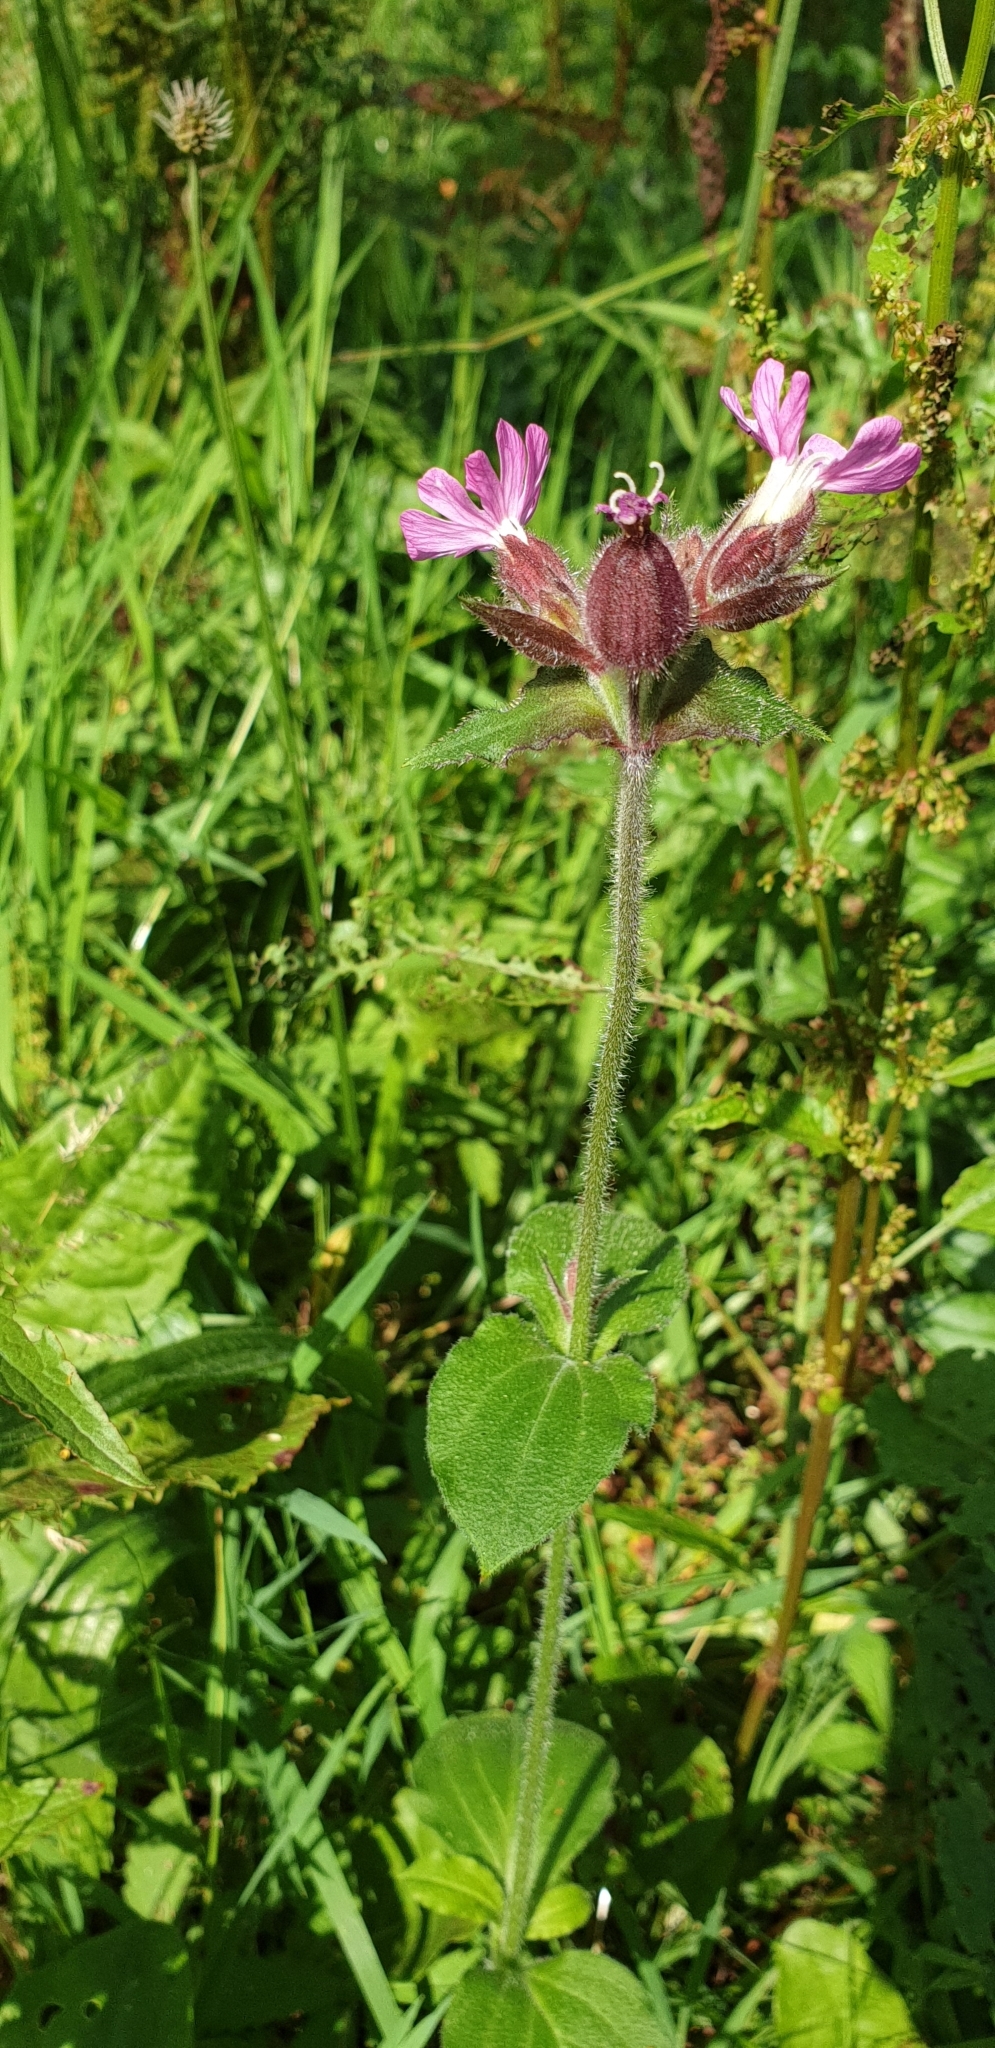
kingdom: Plantae
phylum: Tracheophyta
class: Magnoliopsida
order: Caryophyllales
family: Caryophyllaceae
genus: Silene
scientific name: Silene dioica
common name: Red campion
